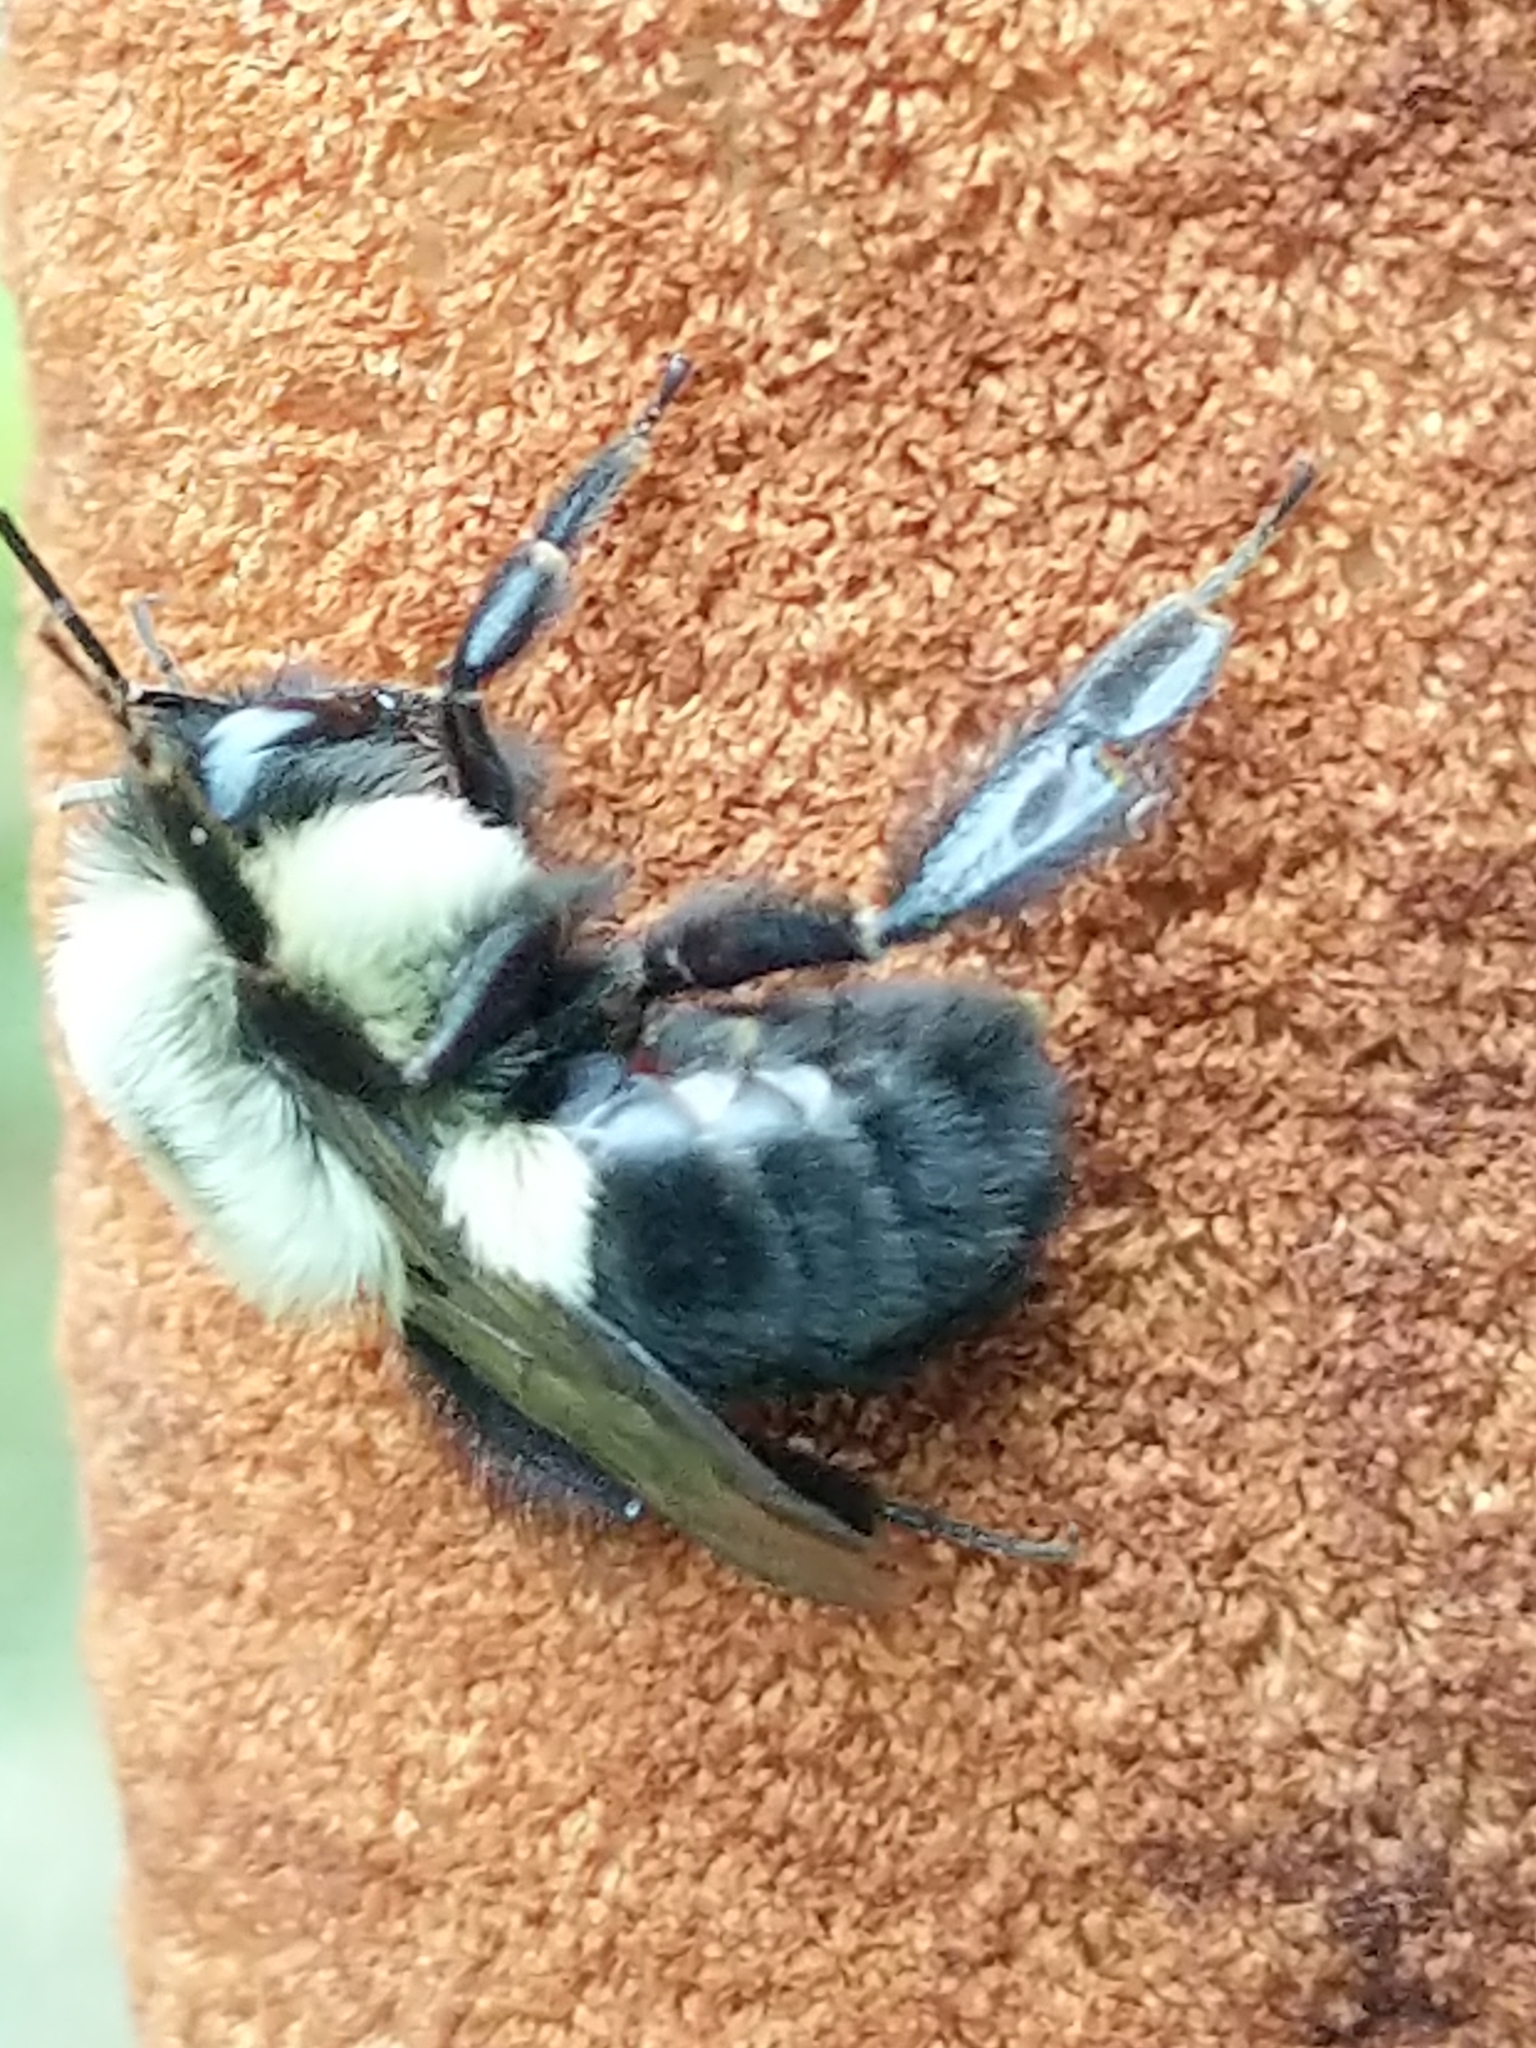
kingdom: Animalia
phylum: Arthropoda
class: Insecta
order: Hymenoptera
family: Apidae
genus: Bombus
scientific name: Bombus impatiens
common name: Common eastern bumble bee
